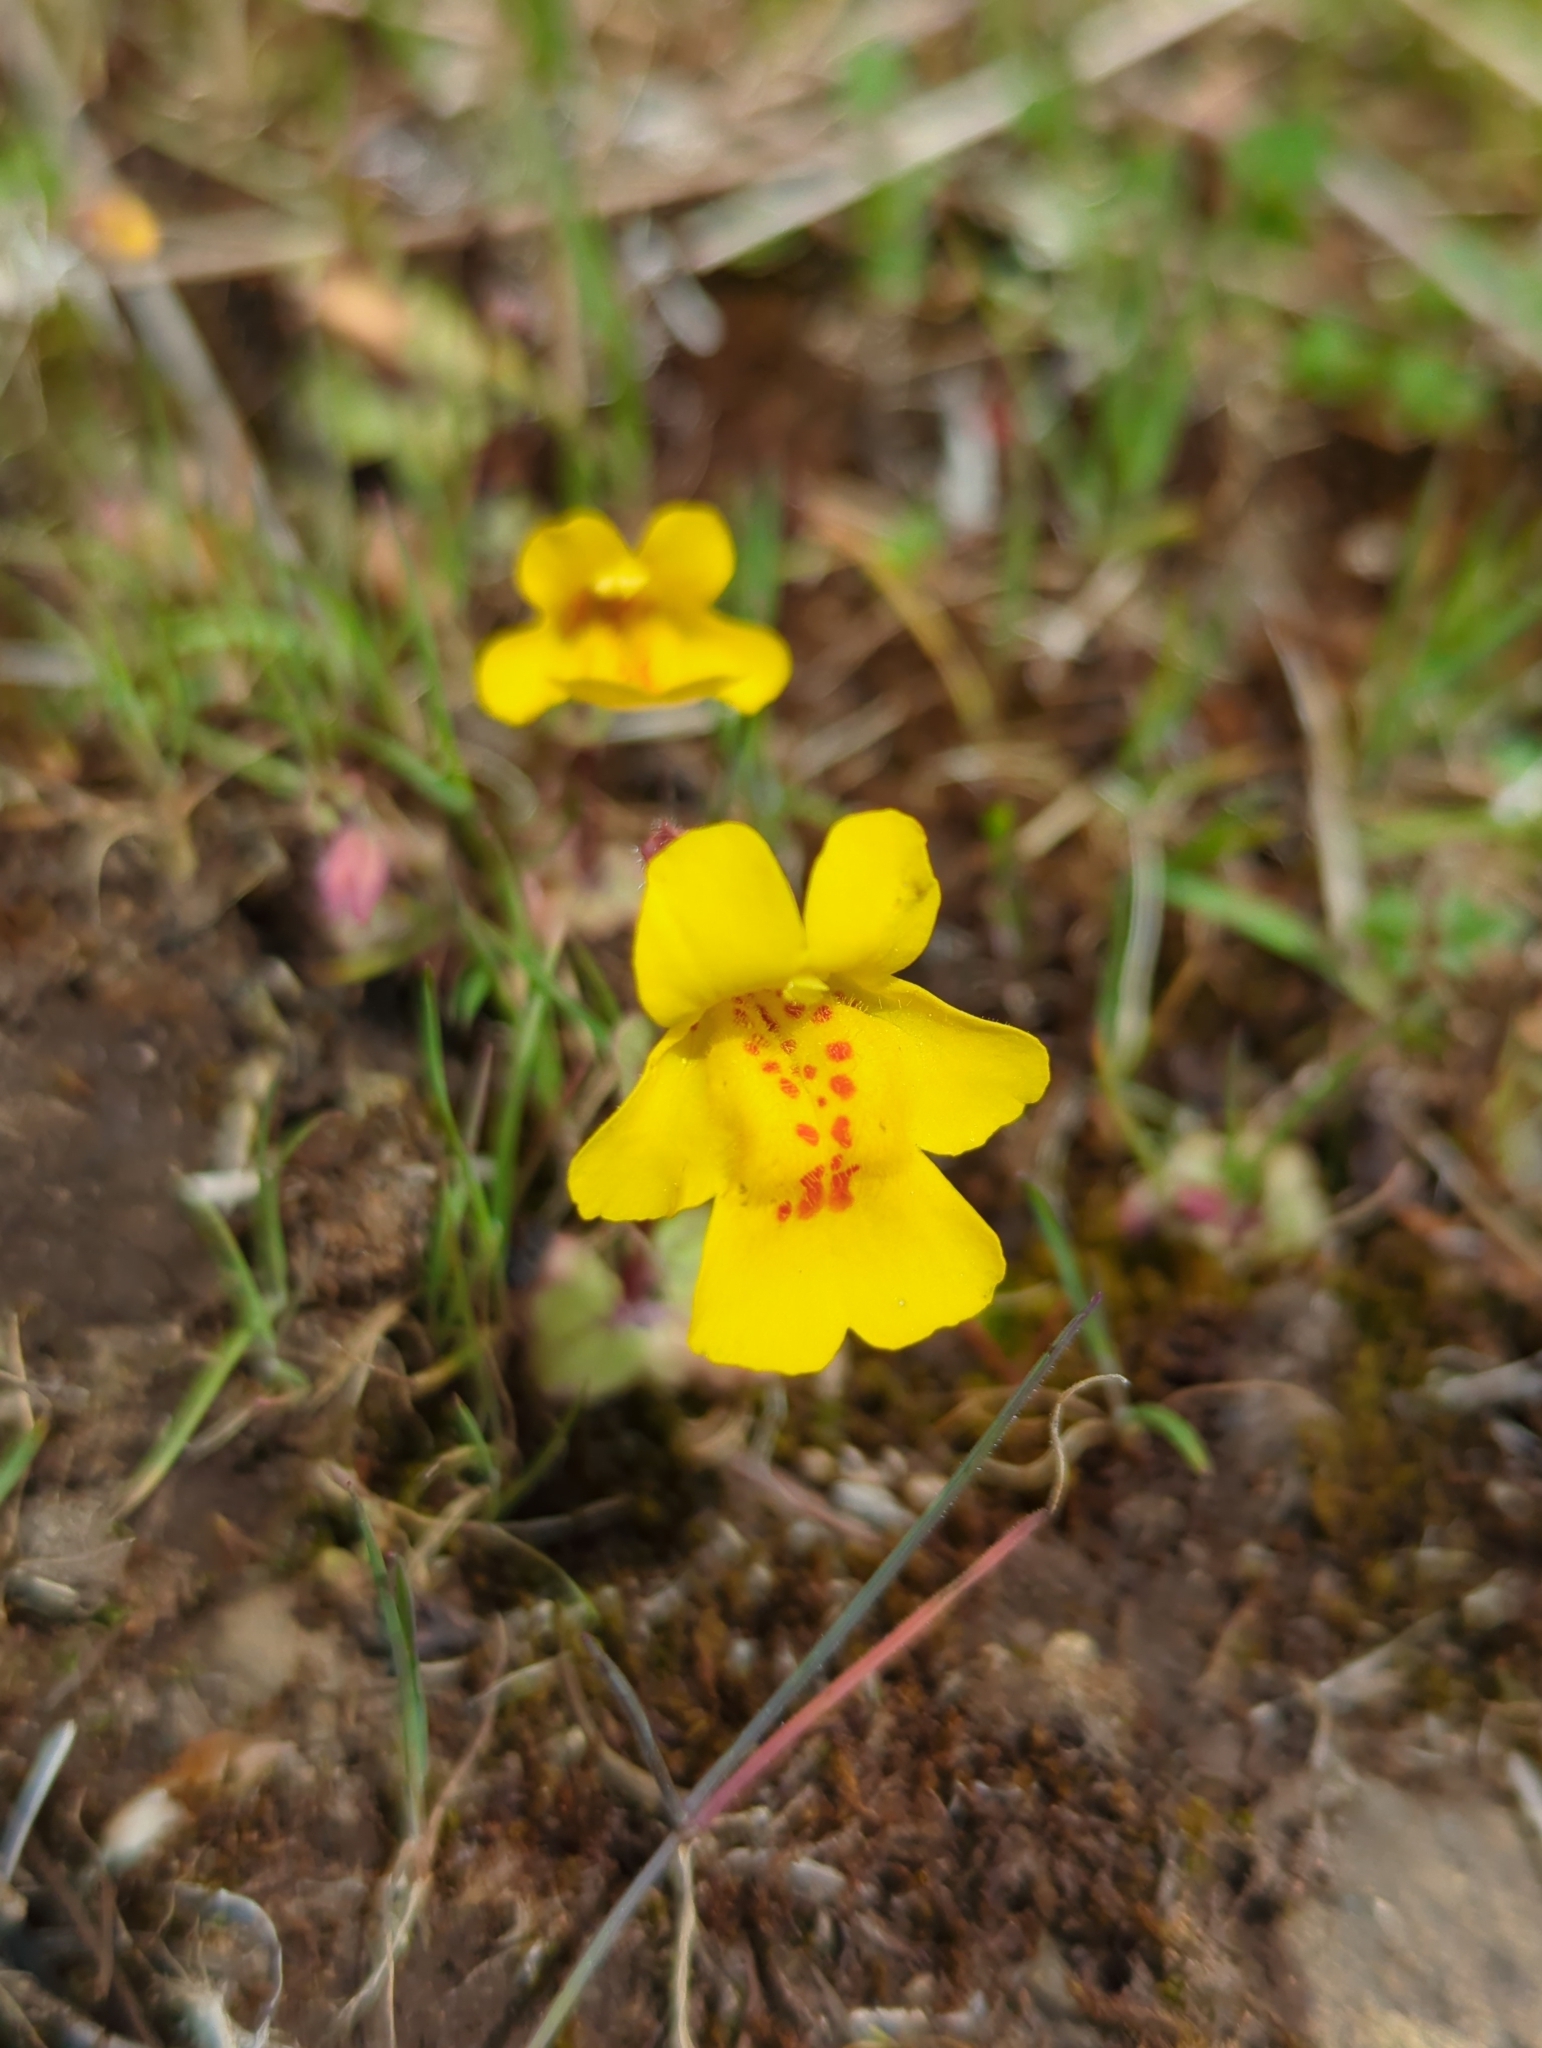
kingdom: Plantae
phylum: Tracheophyta
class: Magnoliopsida
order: Lamiales
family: Phrymaceae
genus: Erythranthe
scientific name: Erythranthe microphylla
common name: Bentham's monkeyflower
